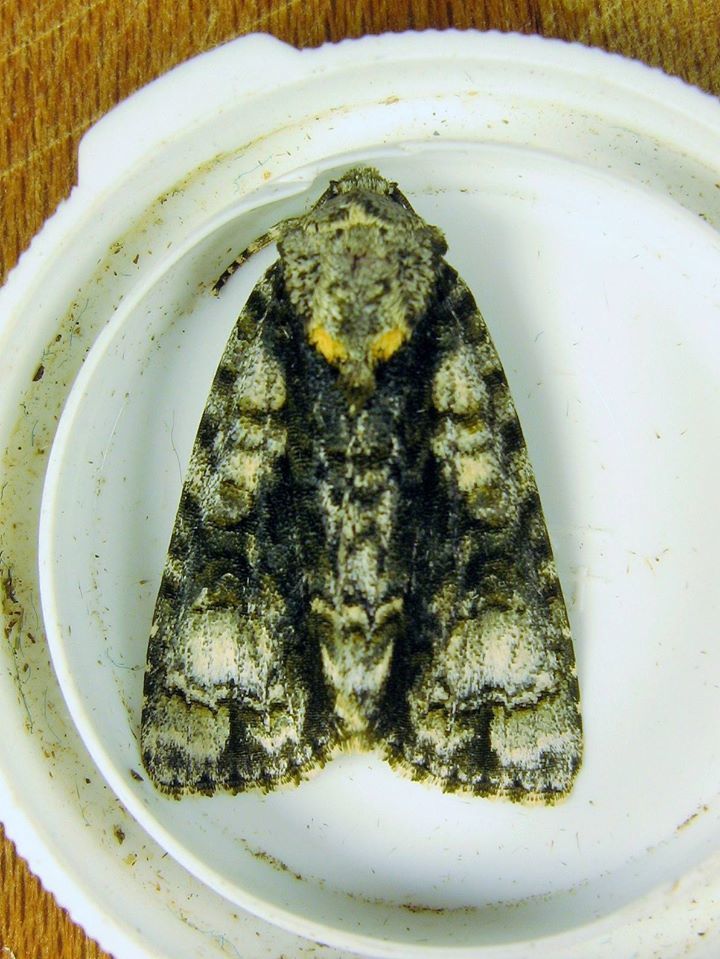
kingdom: Animalia
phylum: Arthropoda
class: Insecta
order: Lepidoptera
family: Noctuidae
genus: Acronicta
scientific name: Acronicta superans
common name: Splendid dagger
